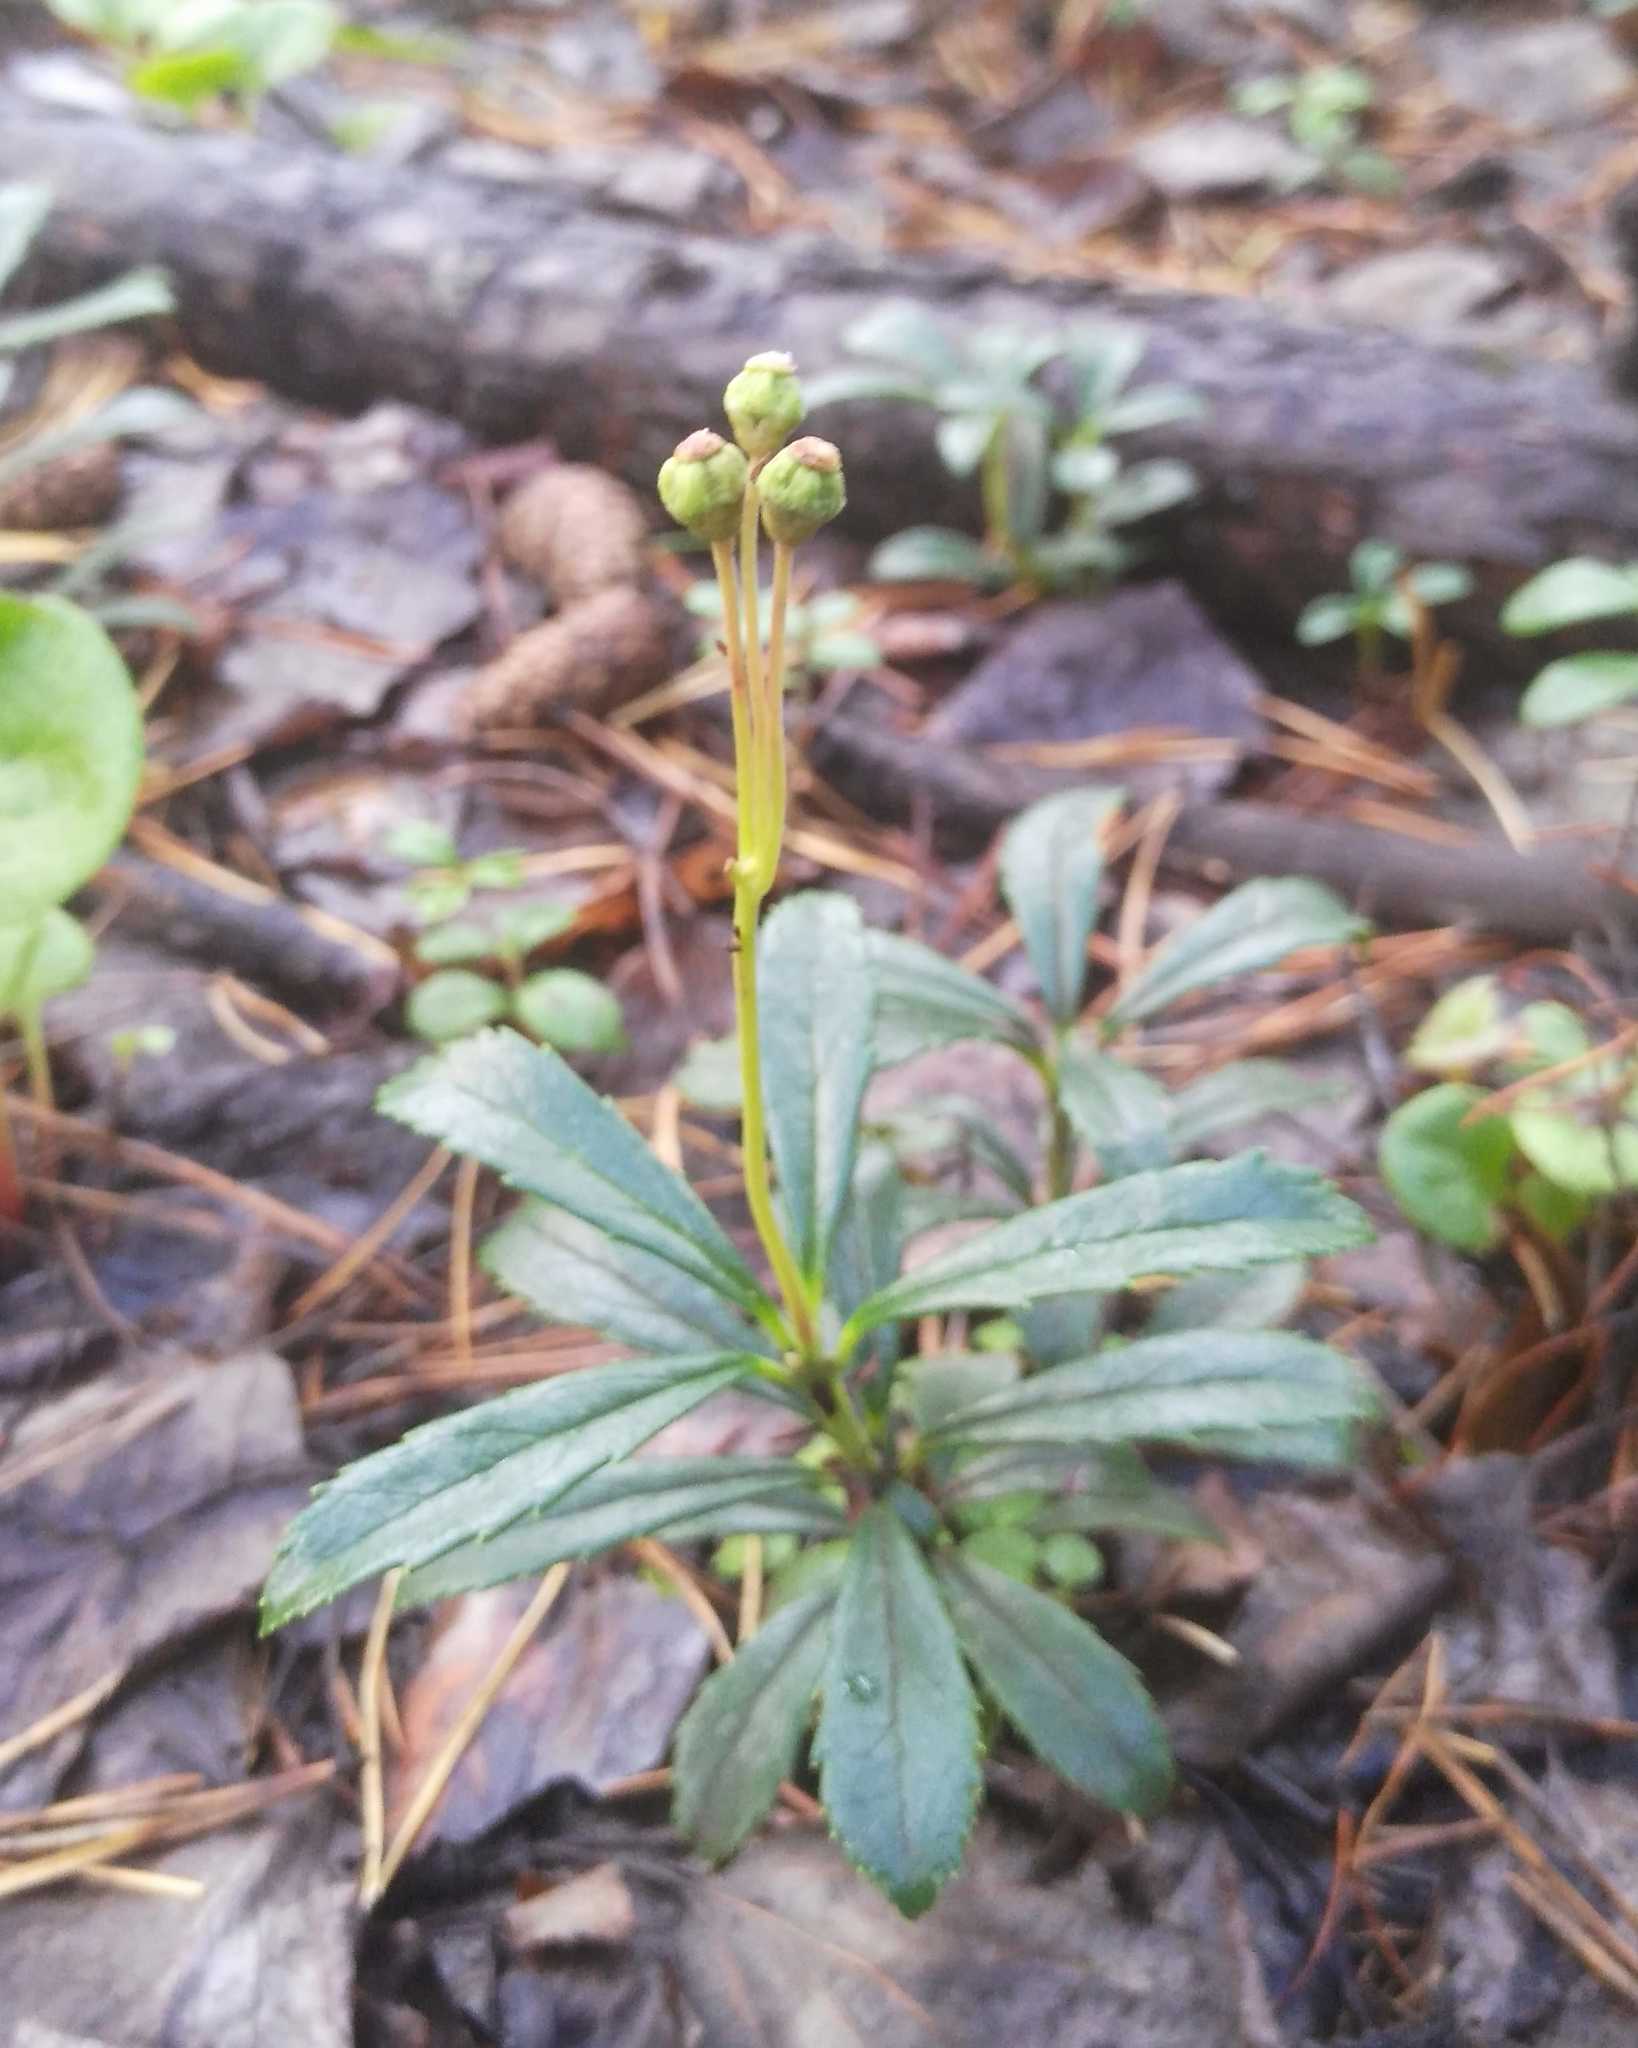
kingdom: Plantae
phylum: Tracheophyta
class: Magnoliopsida
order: Ericales
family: Ericaceae
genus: Chimaphila
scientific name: Chimaphila umbellata
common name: Pipsissewa
